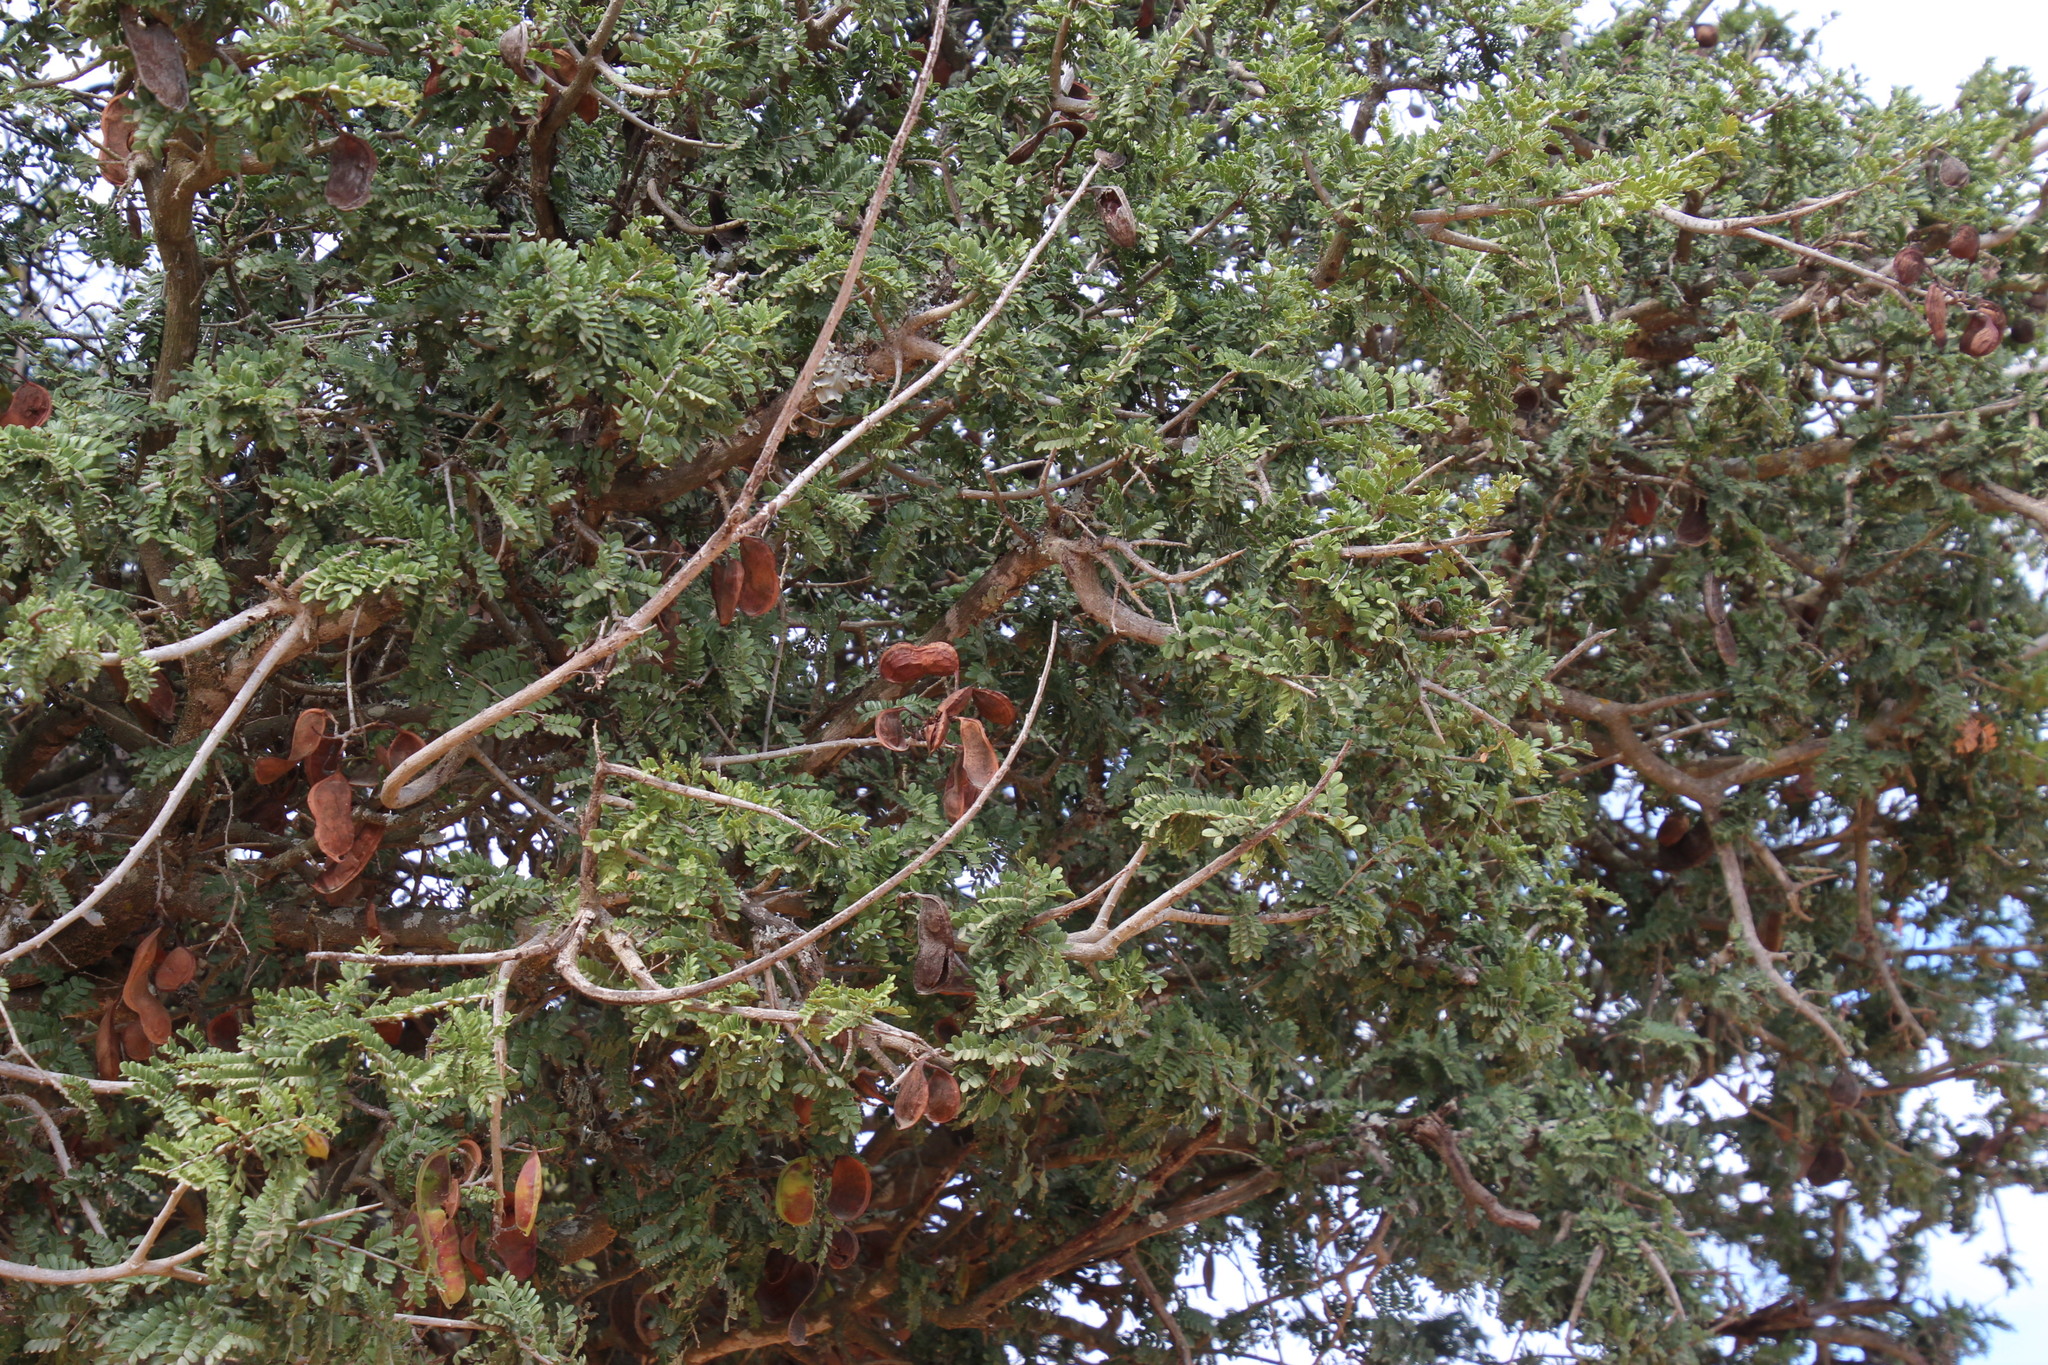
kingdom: Plantae
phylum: Tracheophyta
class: Magnoliopsida
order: Fabales
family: Fabaceae
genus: Schotia
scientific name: Schotia afra
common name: Hottentot's bean
